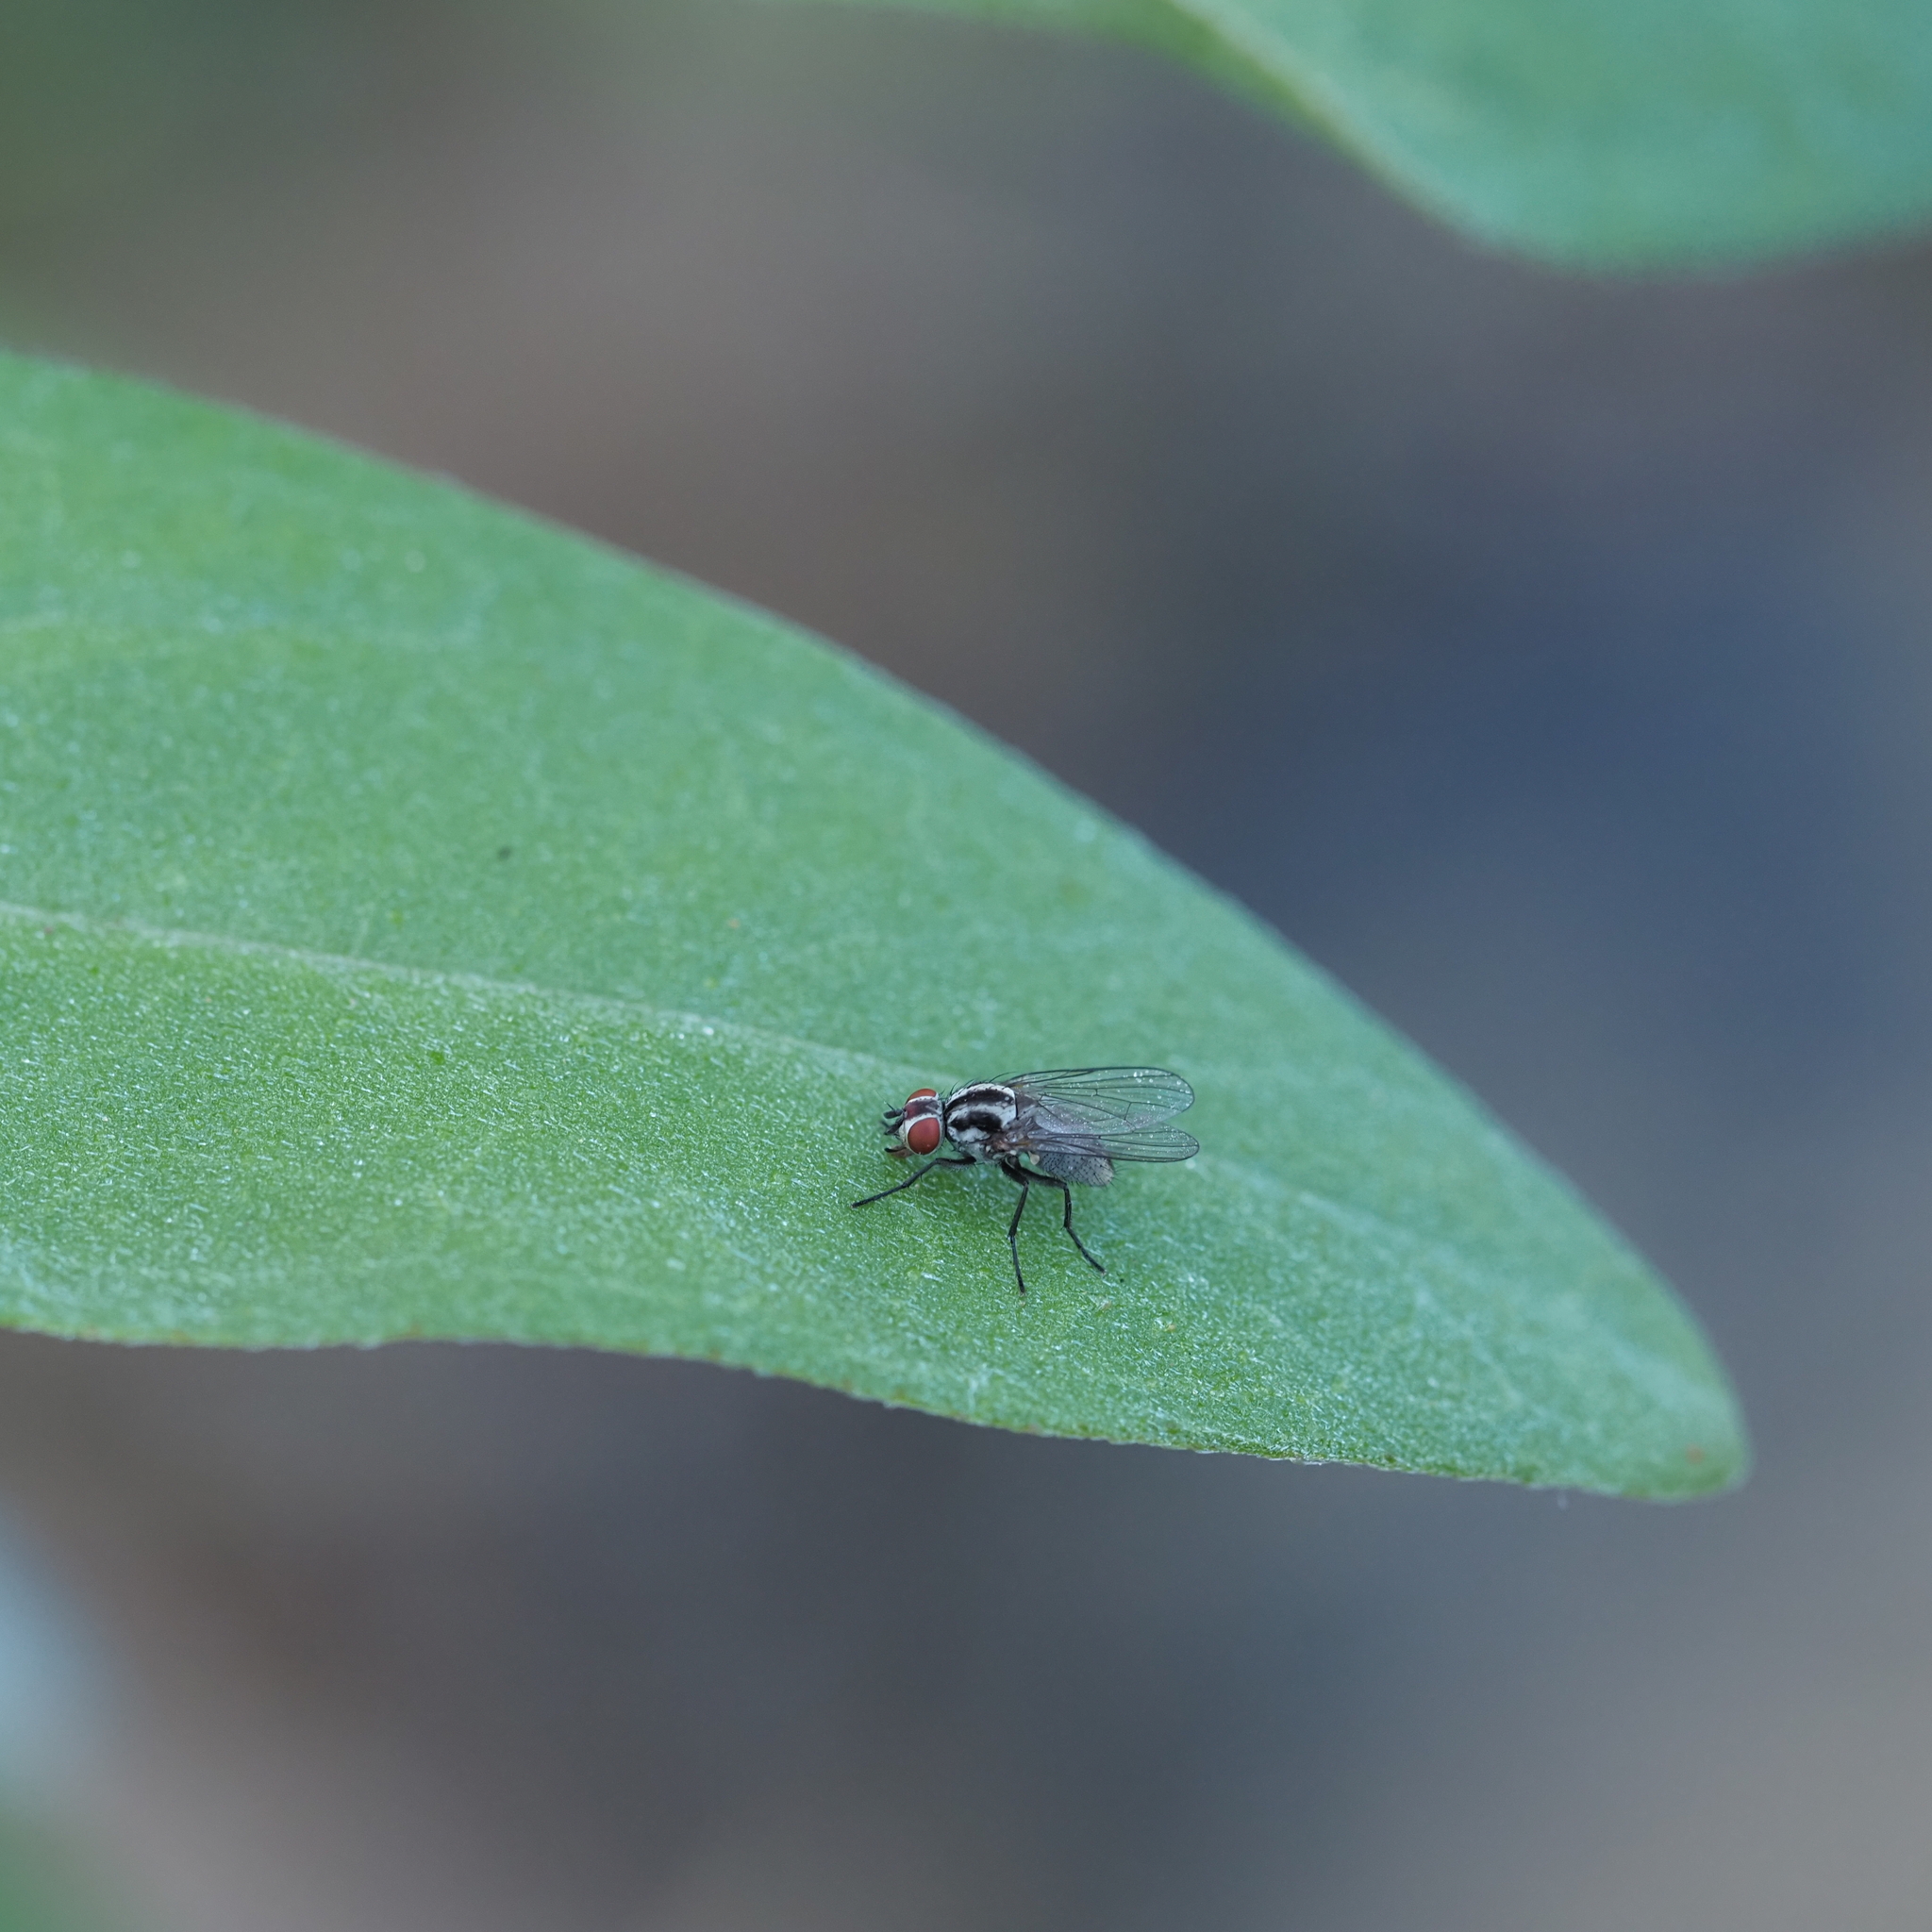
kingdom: Animalia
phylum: Arthropoda
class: Insecta
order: Diptera
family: Anthomyiidae
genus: Anthomyia
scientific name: Anthomyia tempestatum
